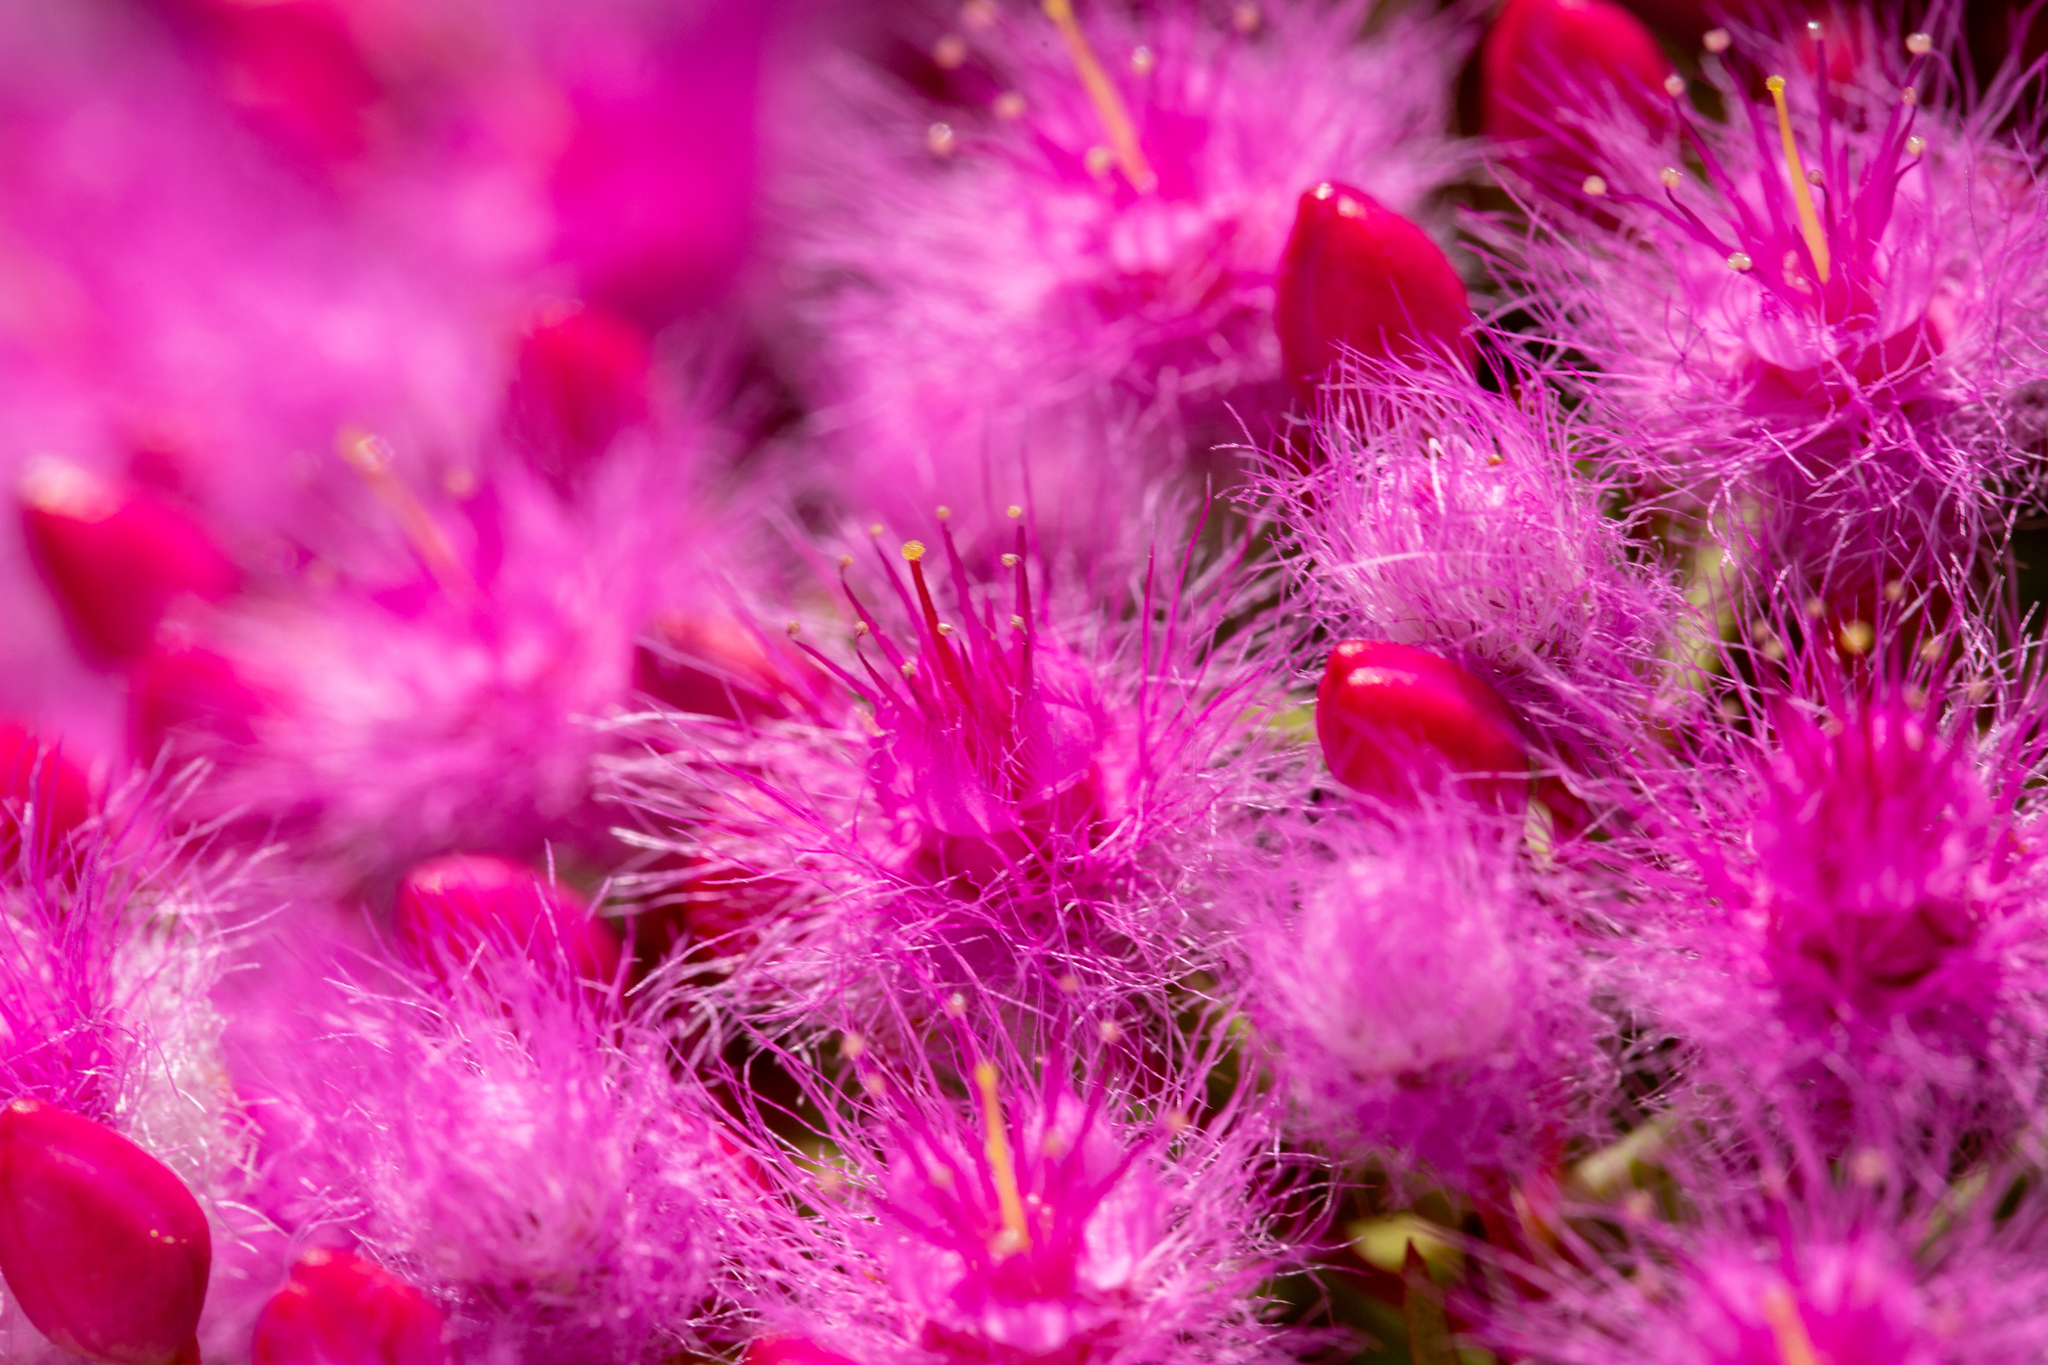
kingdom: Plantae
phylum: Tracheophyta
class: Magnoliopsida
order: Myrtales
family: Myrtaceae
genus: Verticordia
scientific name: Verticordia monadelpha
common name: Woolly feather-flower
